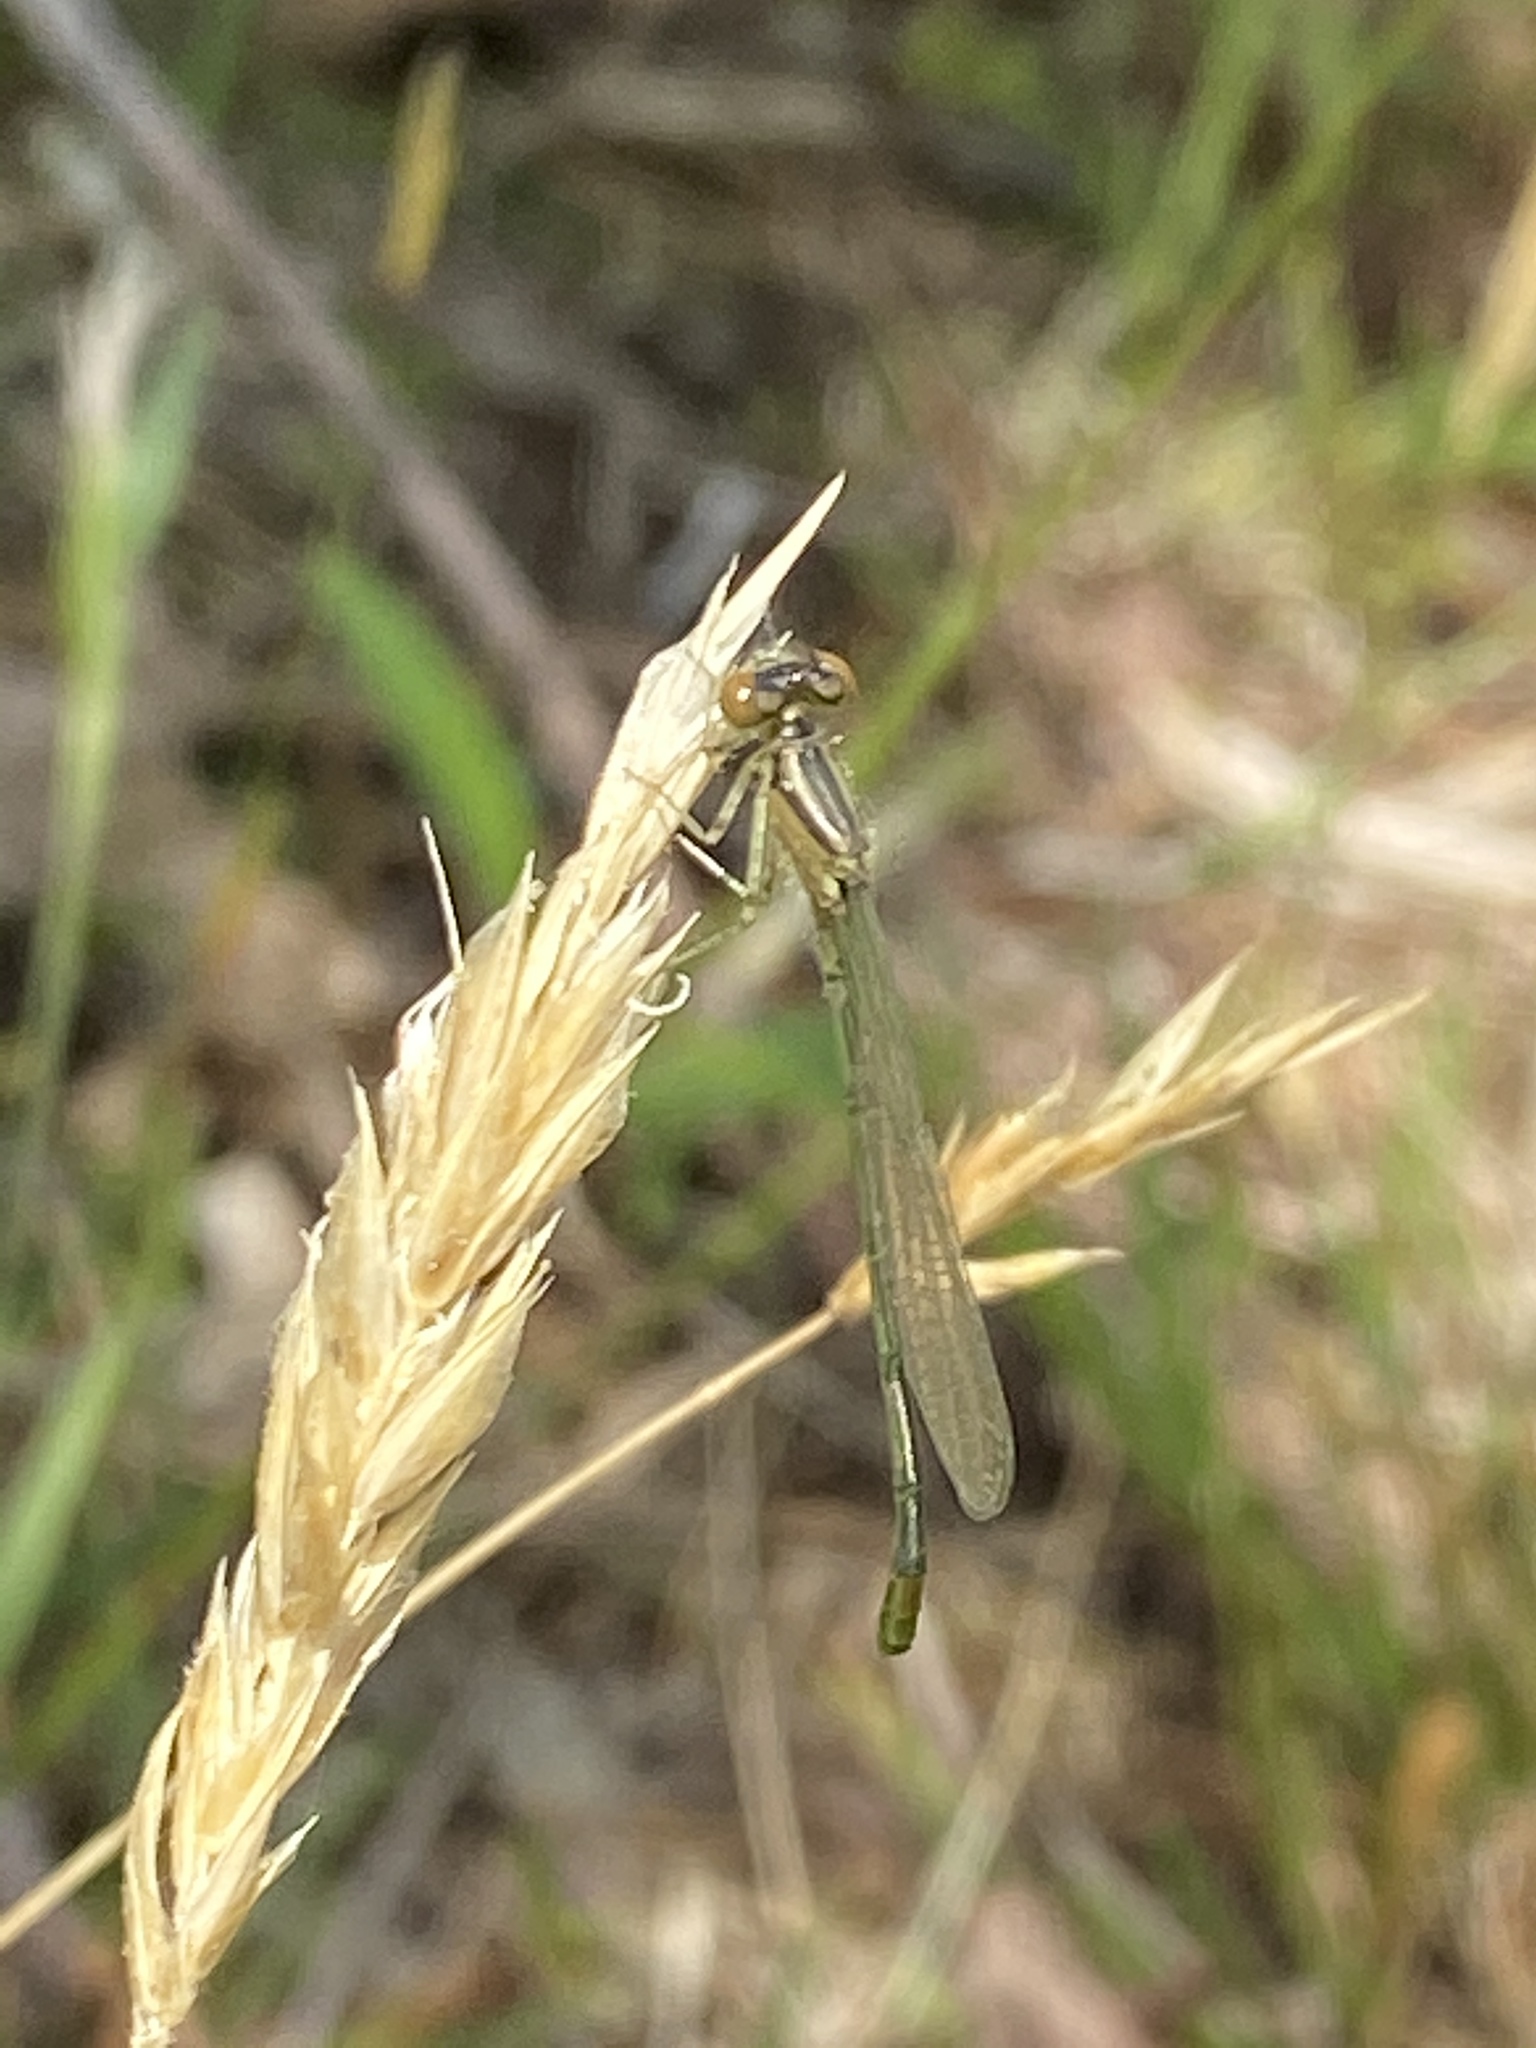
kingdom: Animalia
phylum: Arthropoda
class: Insecta
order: Odonata
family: Coenagrionidae
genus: Ischnura
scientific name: Ischnura verticalis
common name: Eastern forktail
